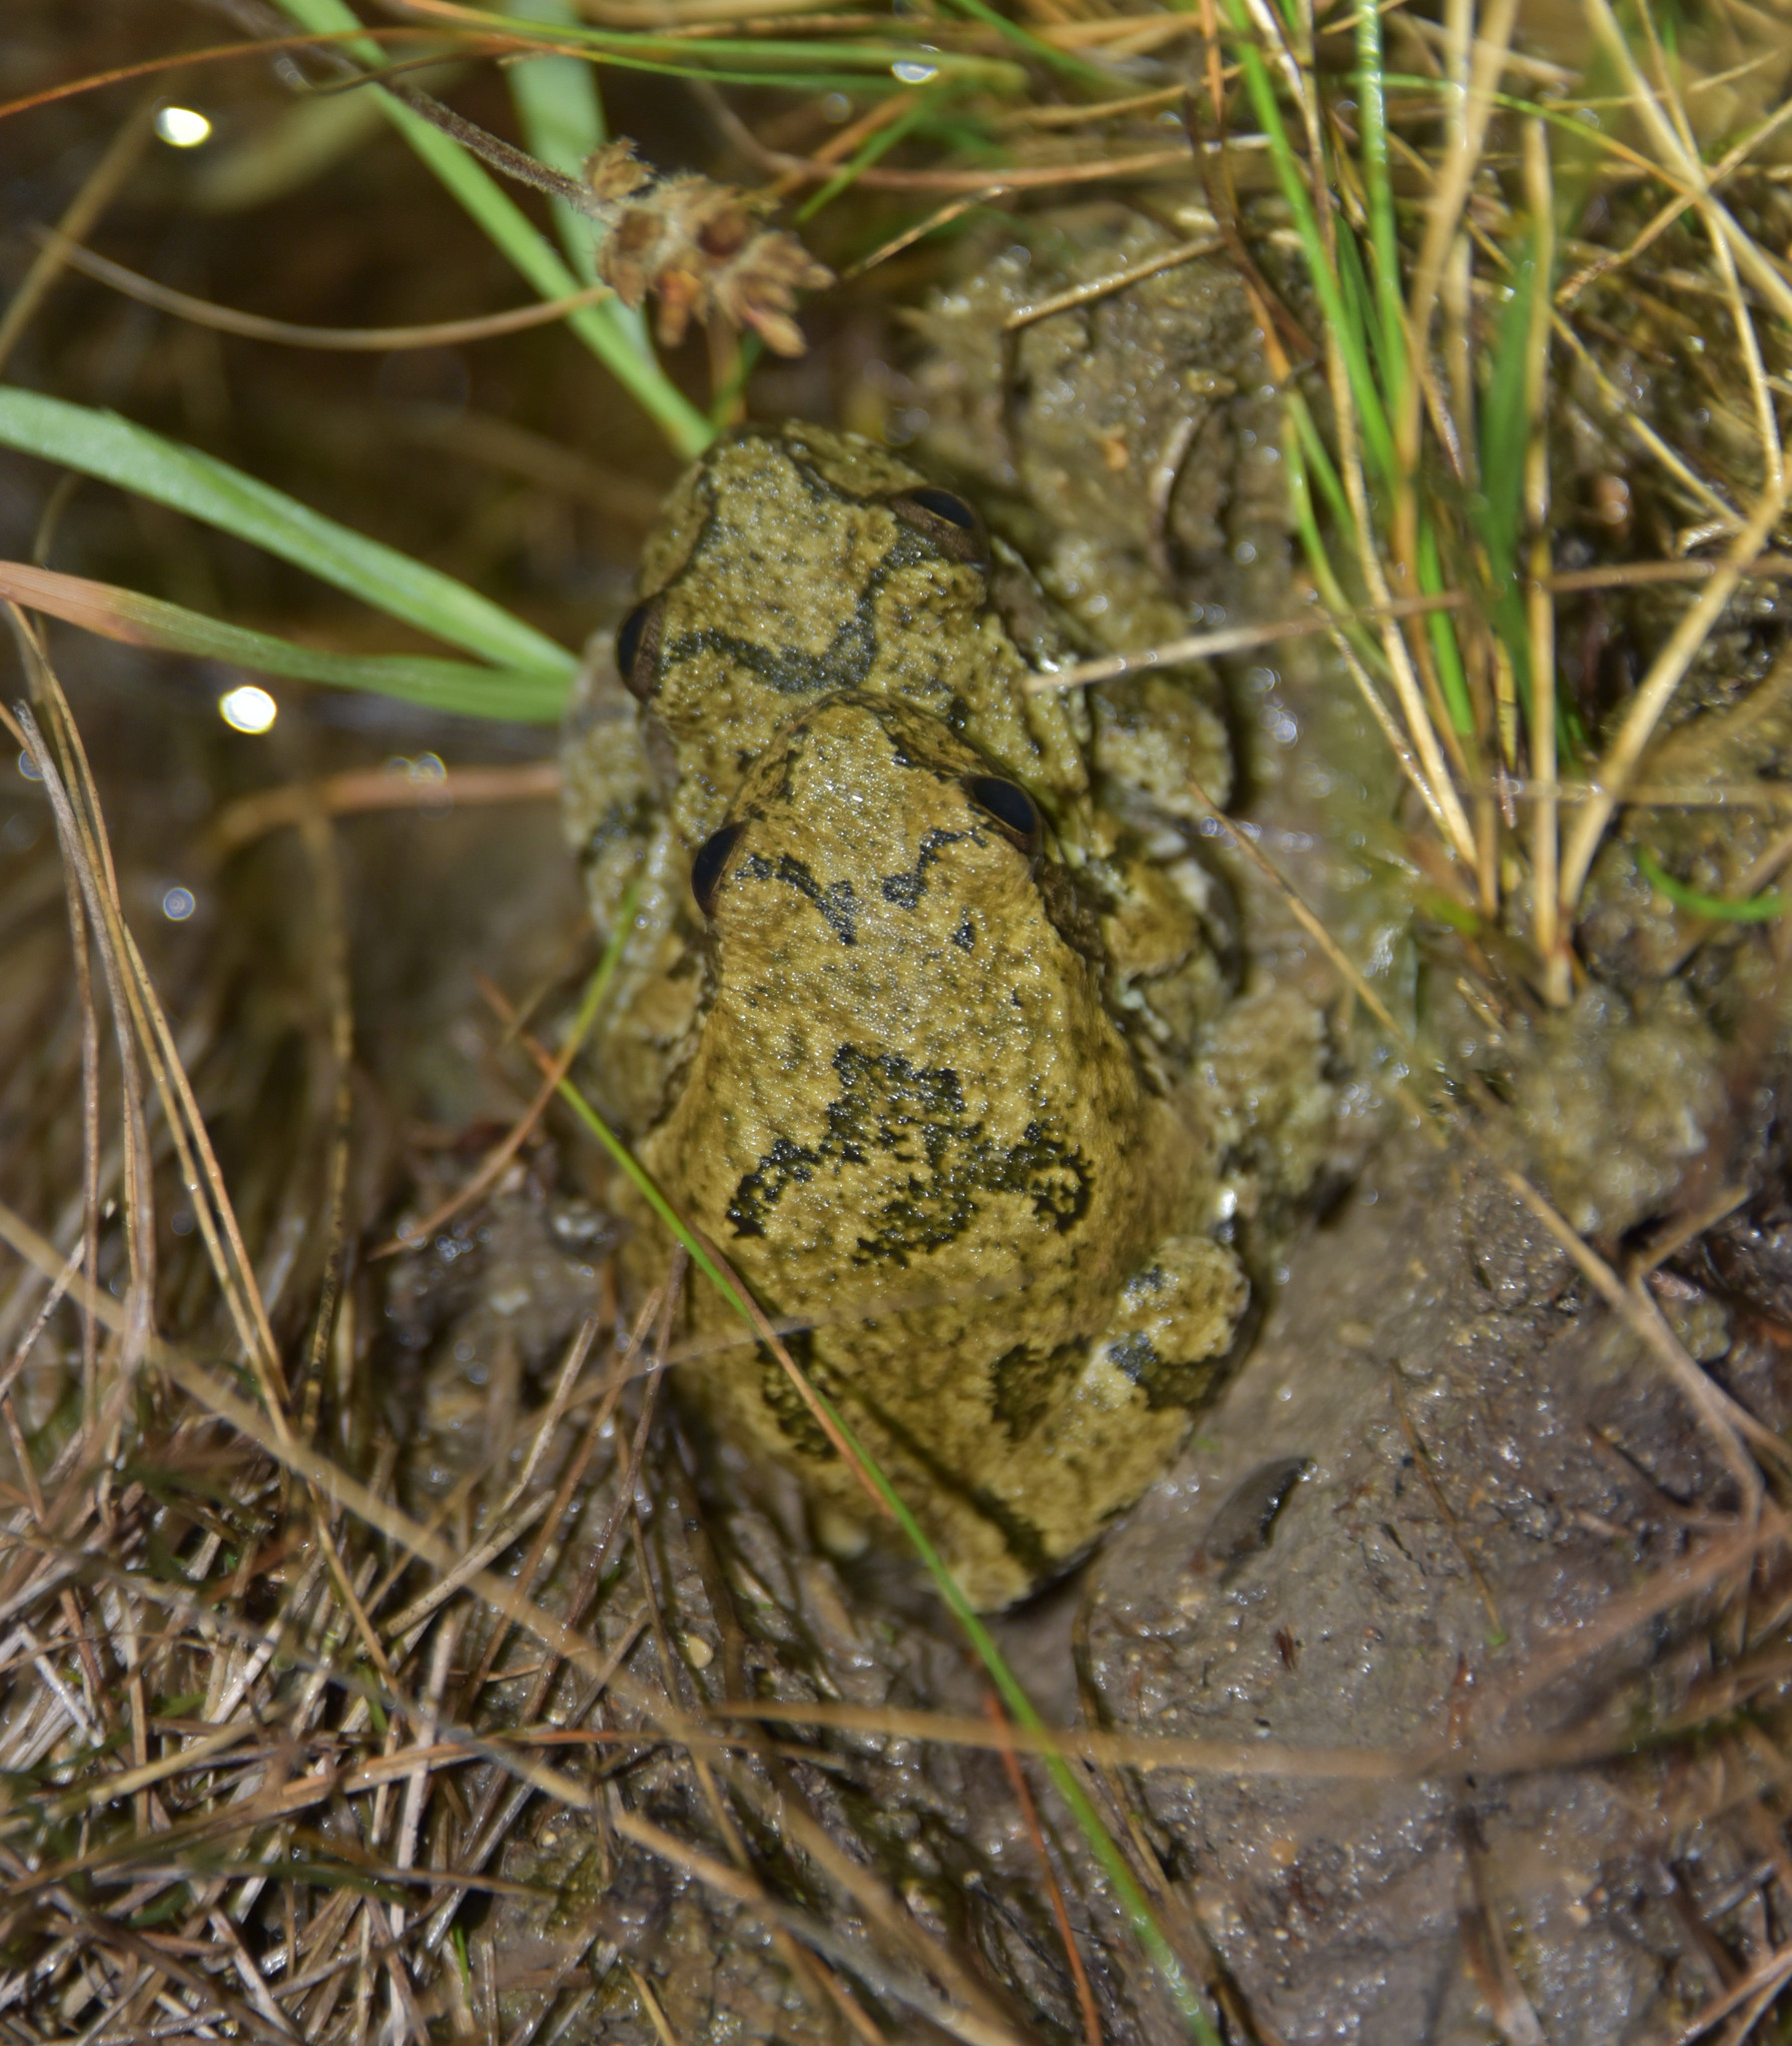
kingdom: Animalia
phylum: Chordata
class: Amphibia
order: Anura
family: Hylidae
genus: Dryophytes
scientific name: Dryophytes chrysoscelis
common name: Cope's gray treefrog
